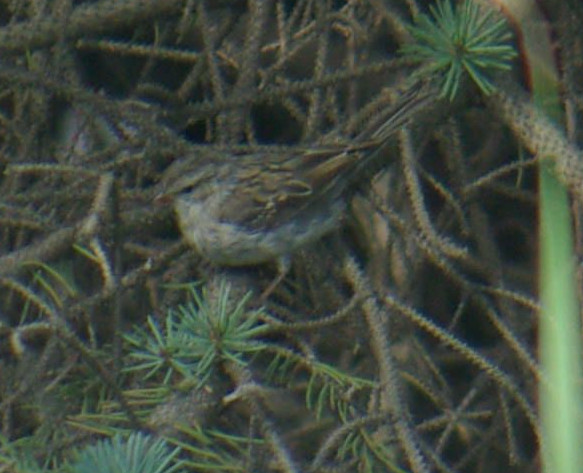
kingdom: Animalia
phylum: Chordata
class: Aves
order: Passeriformes
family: Passerellidae
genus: Spizella
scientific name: Spizella passerina
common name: Chipping sparrow
